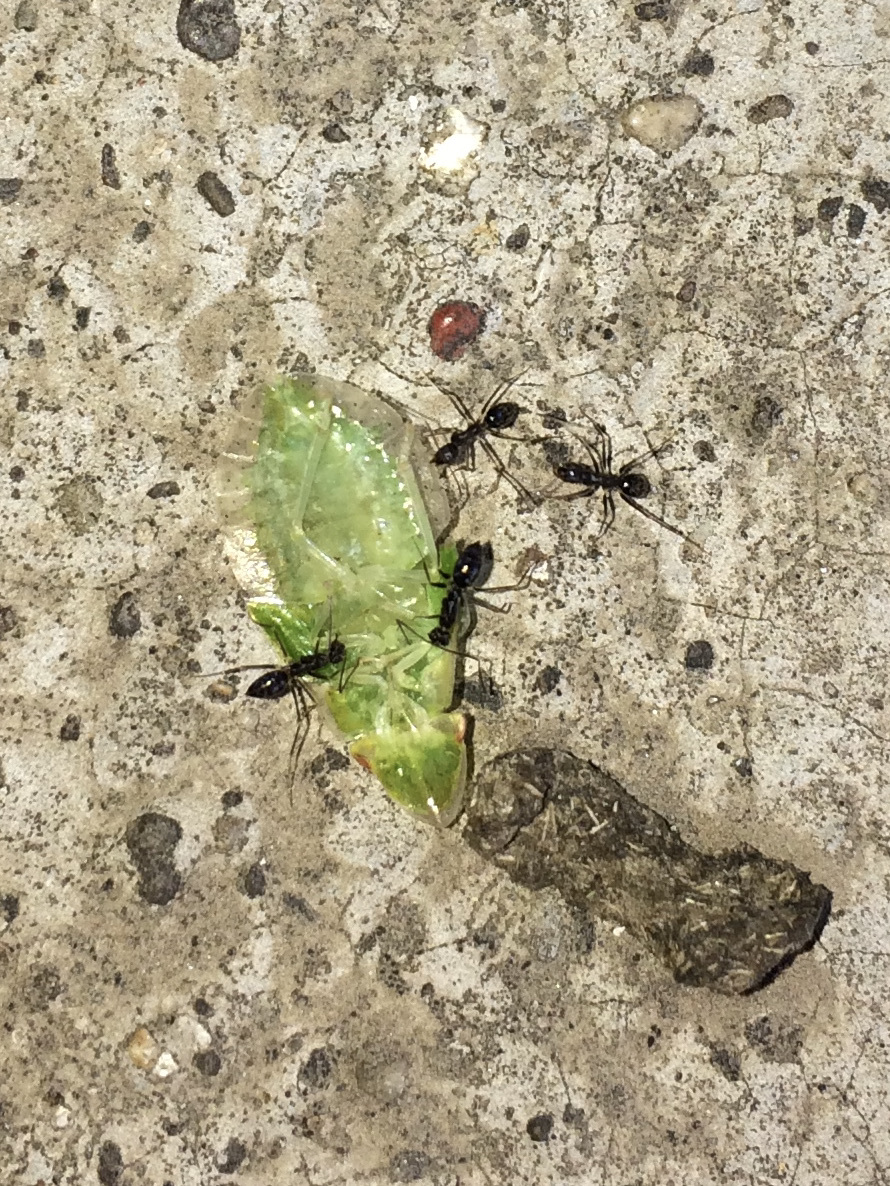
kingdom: Animalia
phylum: Arthropoda
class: Insecta
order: Hymenoptera
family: Formicidae
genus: Paratrechina
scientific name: Paratrechina longicornis
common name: Longhorned crazy ant
